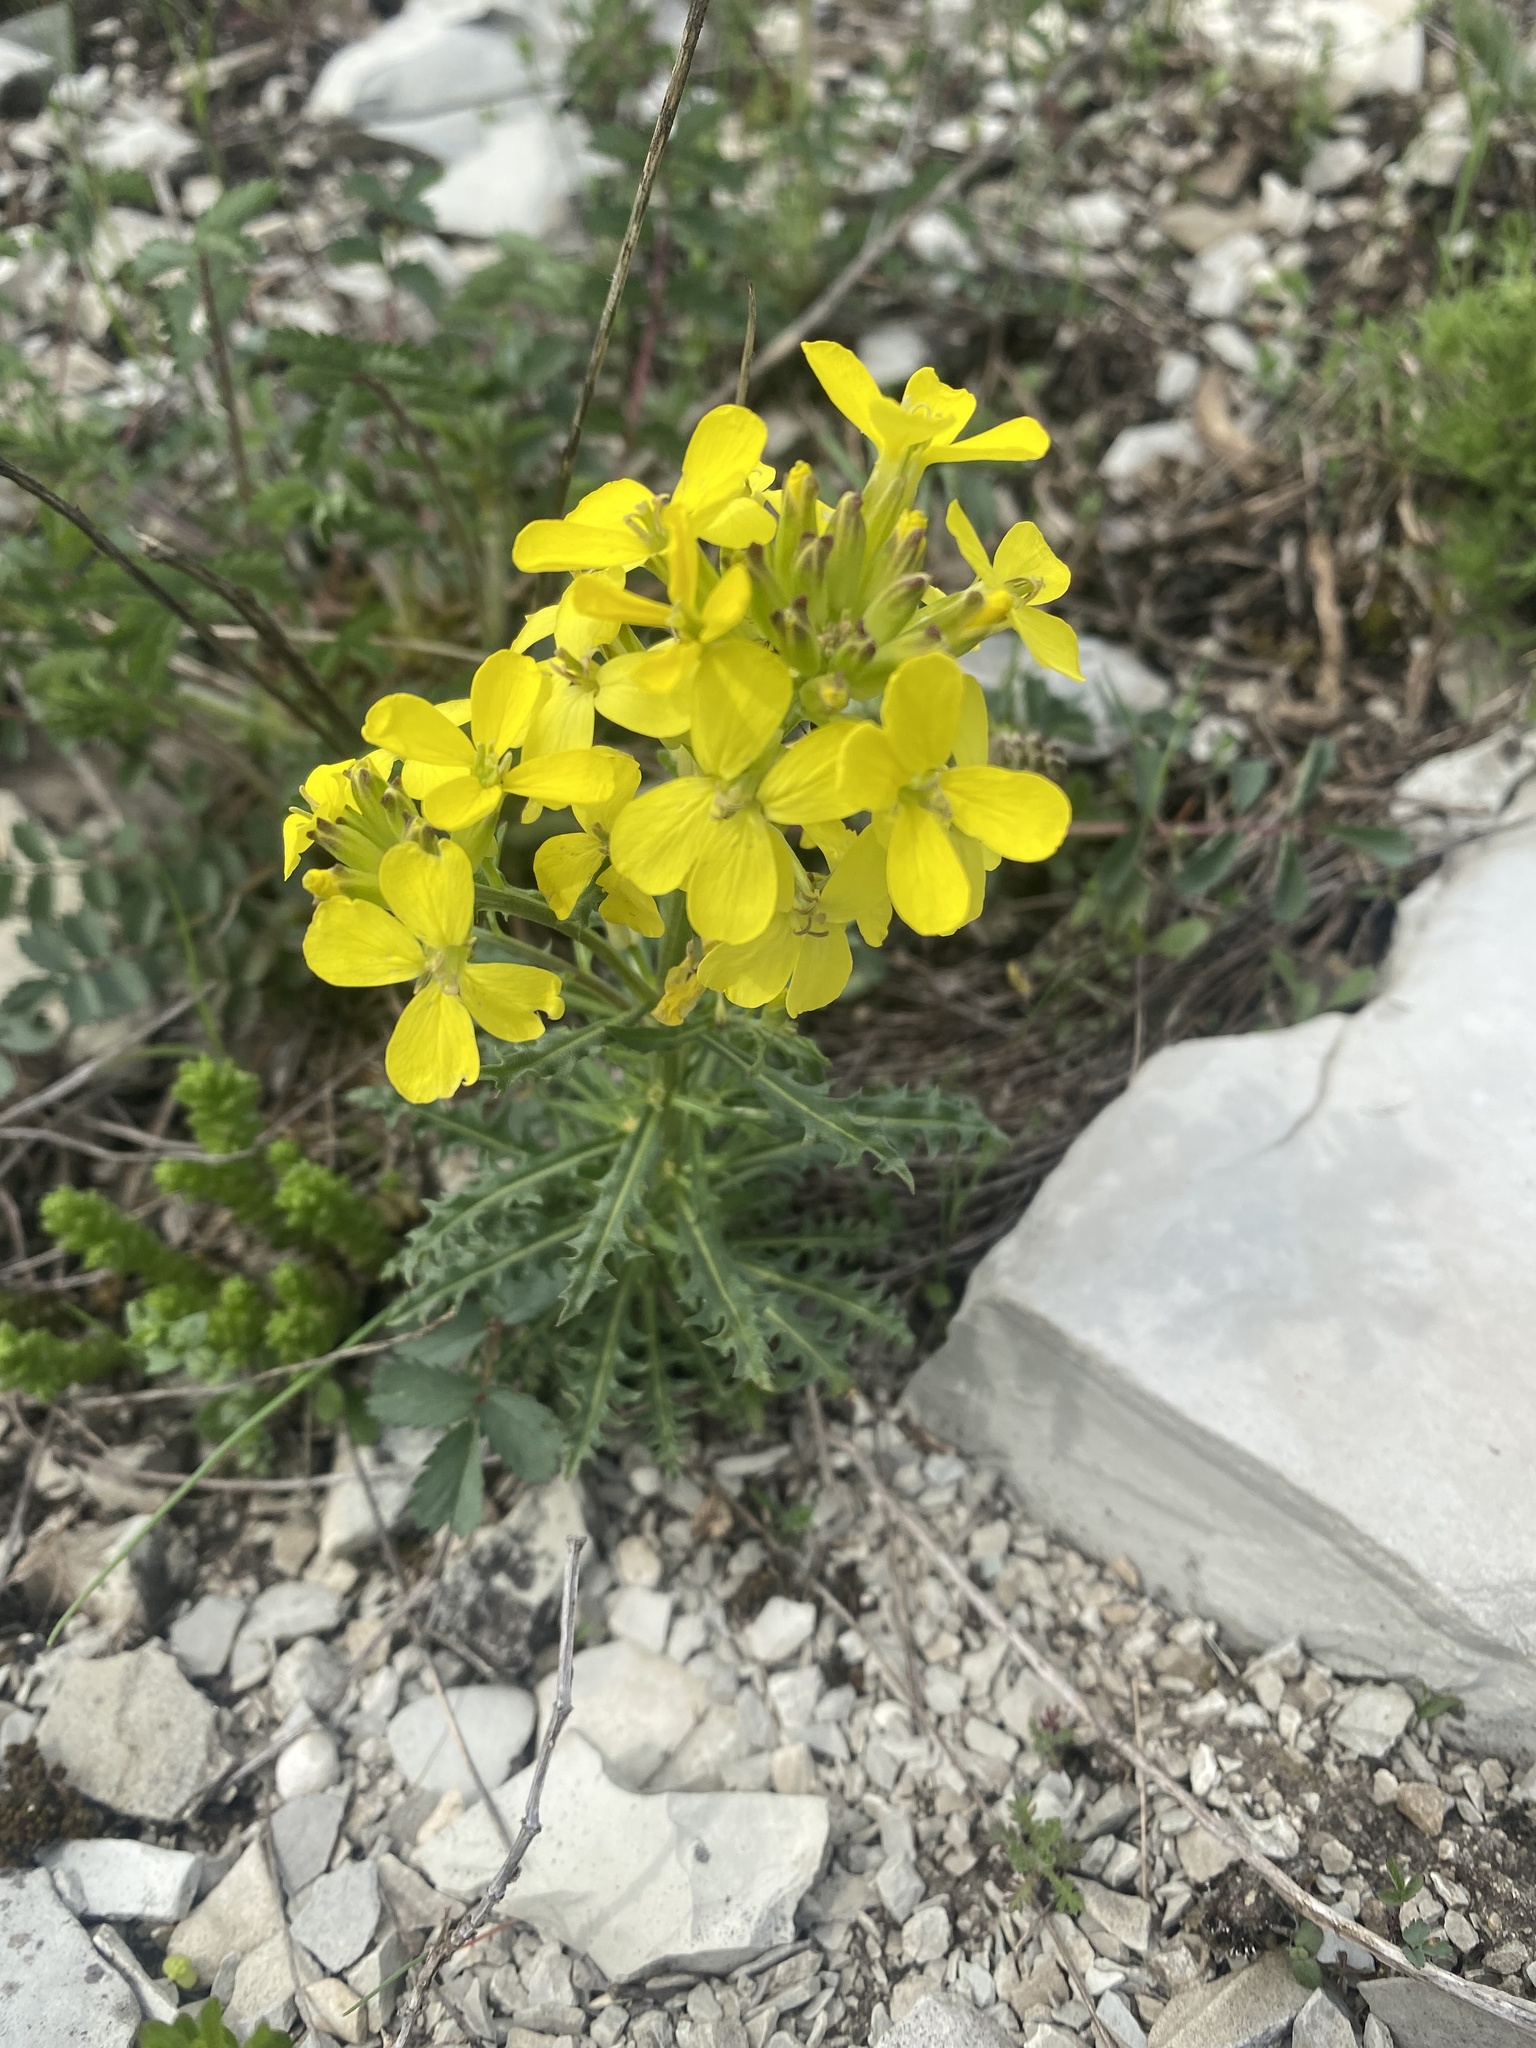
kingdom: Plantae
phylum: Tracheophyta
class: Magnoliopsida
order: Brassicales
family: Brassicaceae
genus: Erysimum
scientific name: Erysimum cuspidatum
